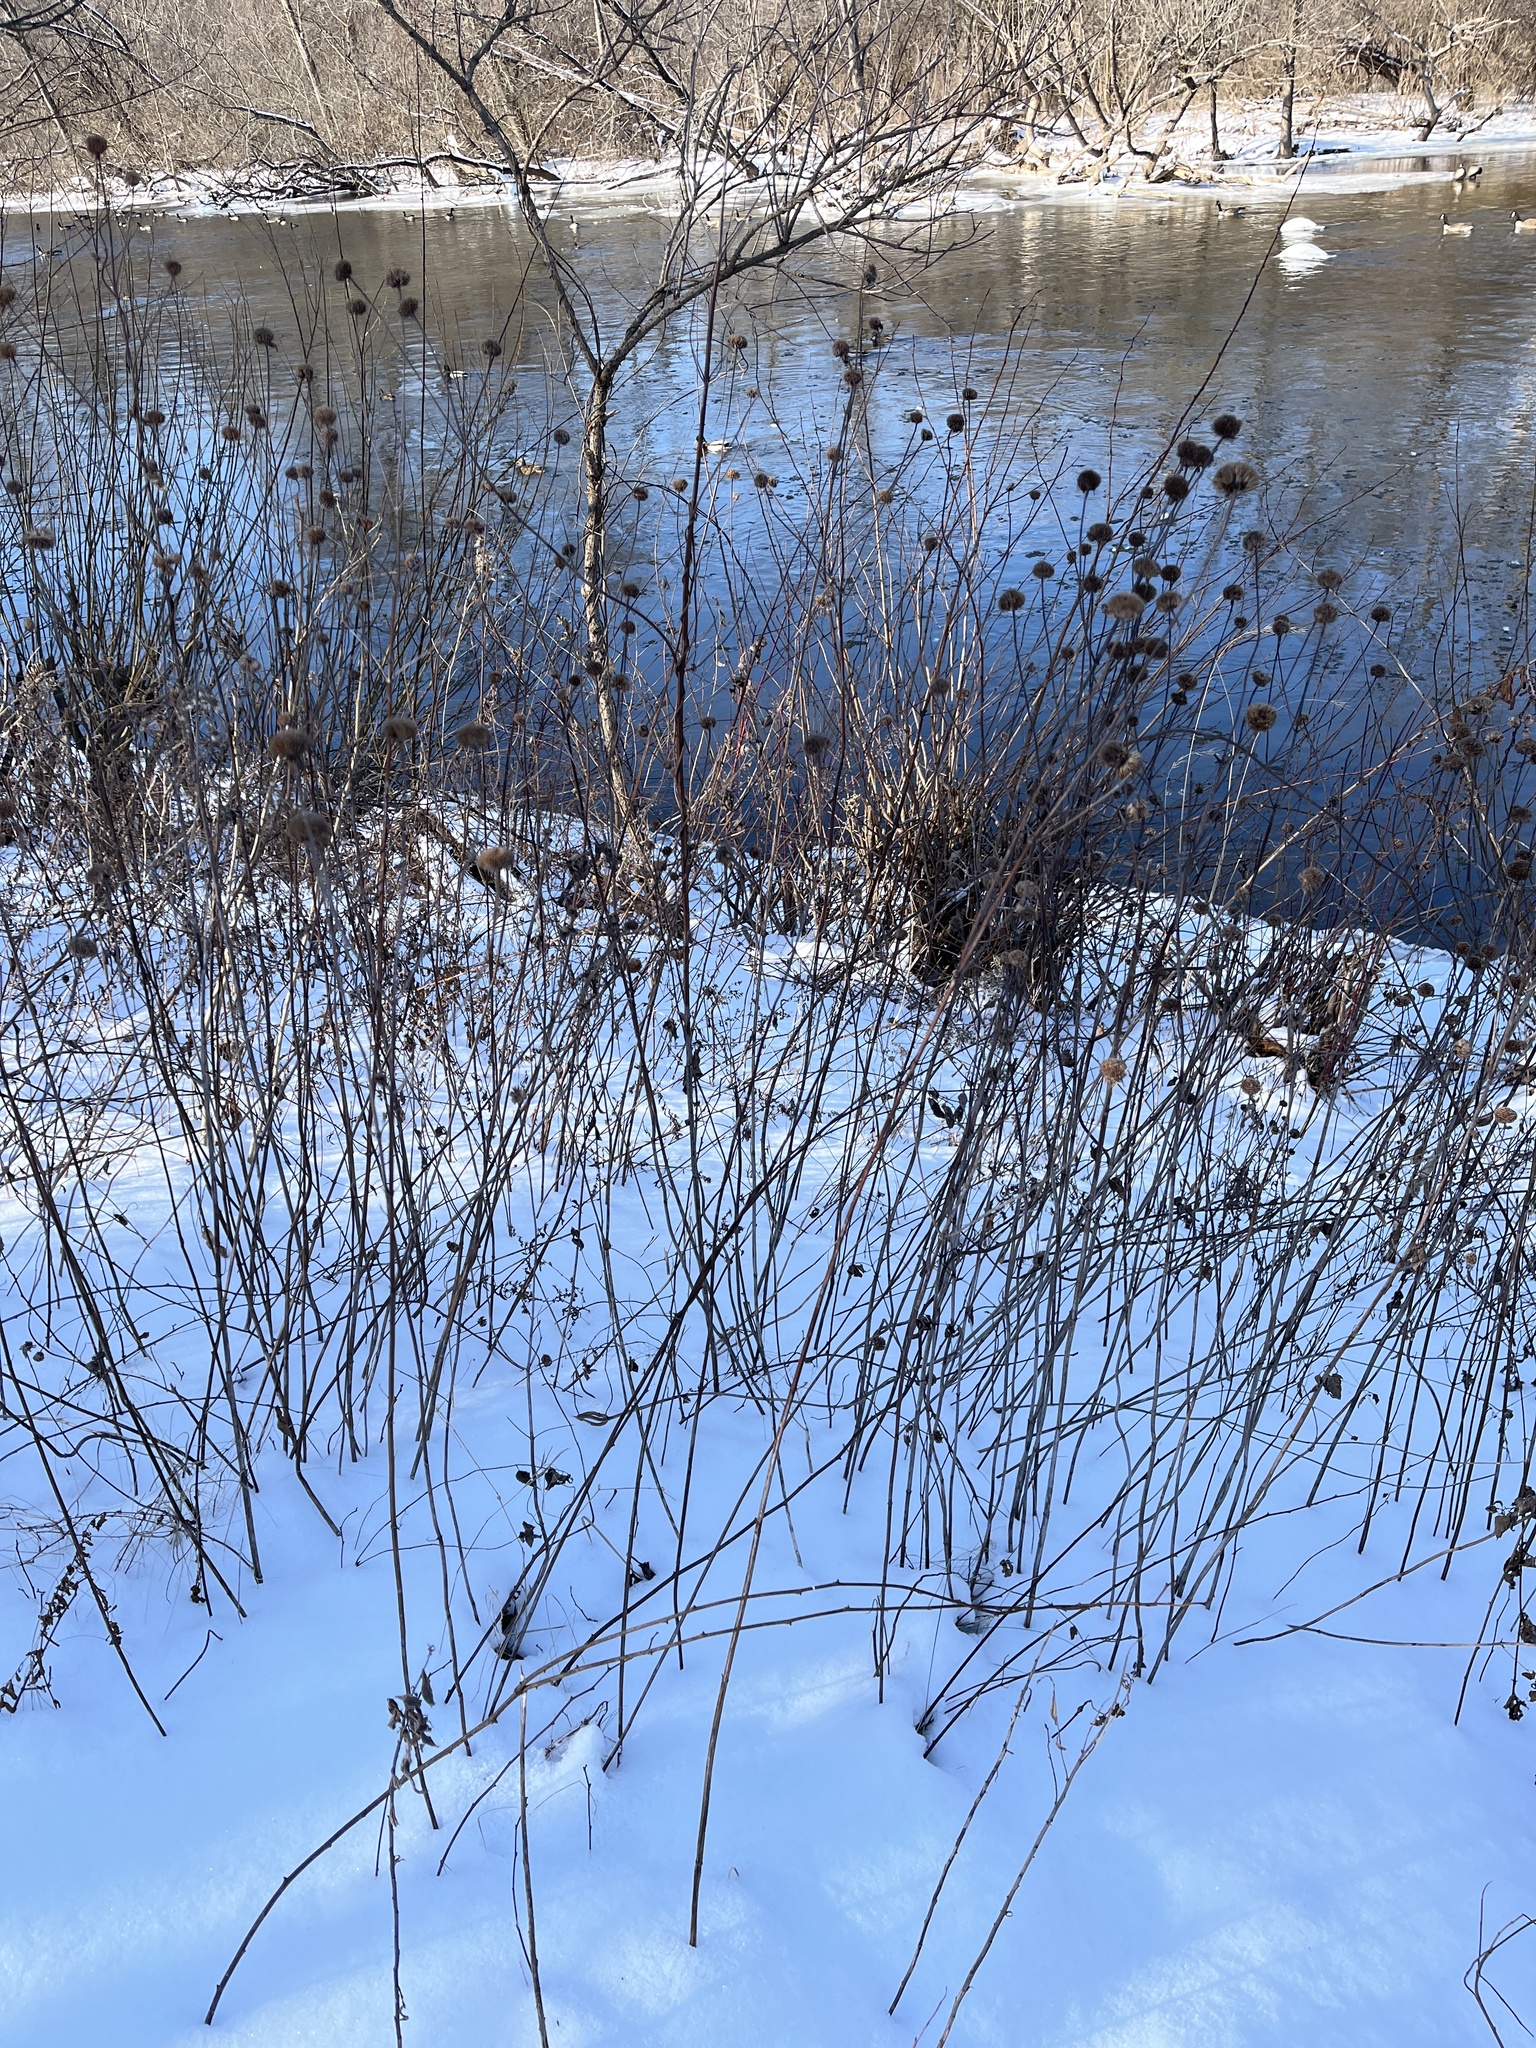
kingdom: Plantae
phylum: Tracheophyta
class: Magnoliopsida
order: Lamiales
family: Lamiaceae
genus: Monarda
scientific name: Monarda fistulosa
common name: Purple beebalm
